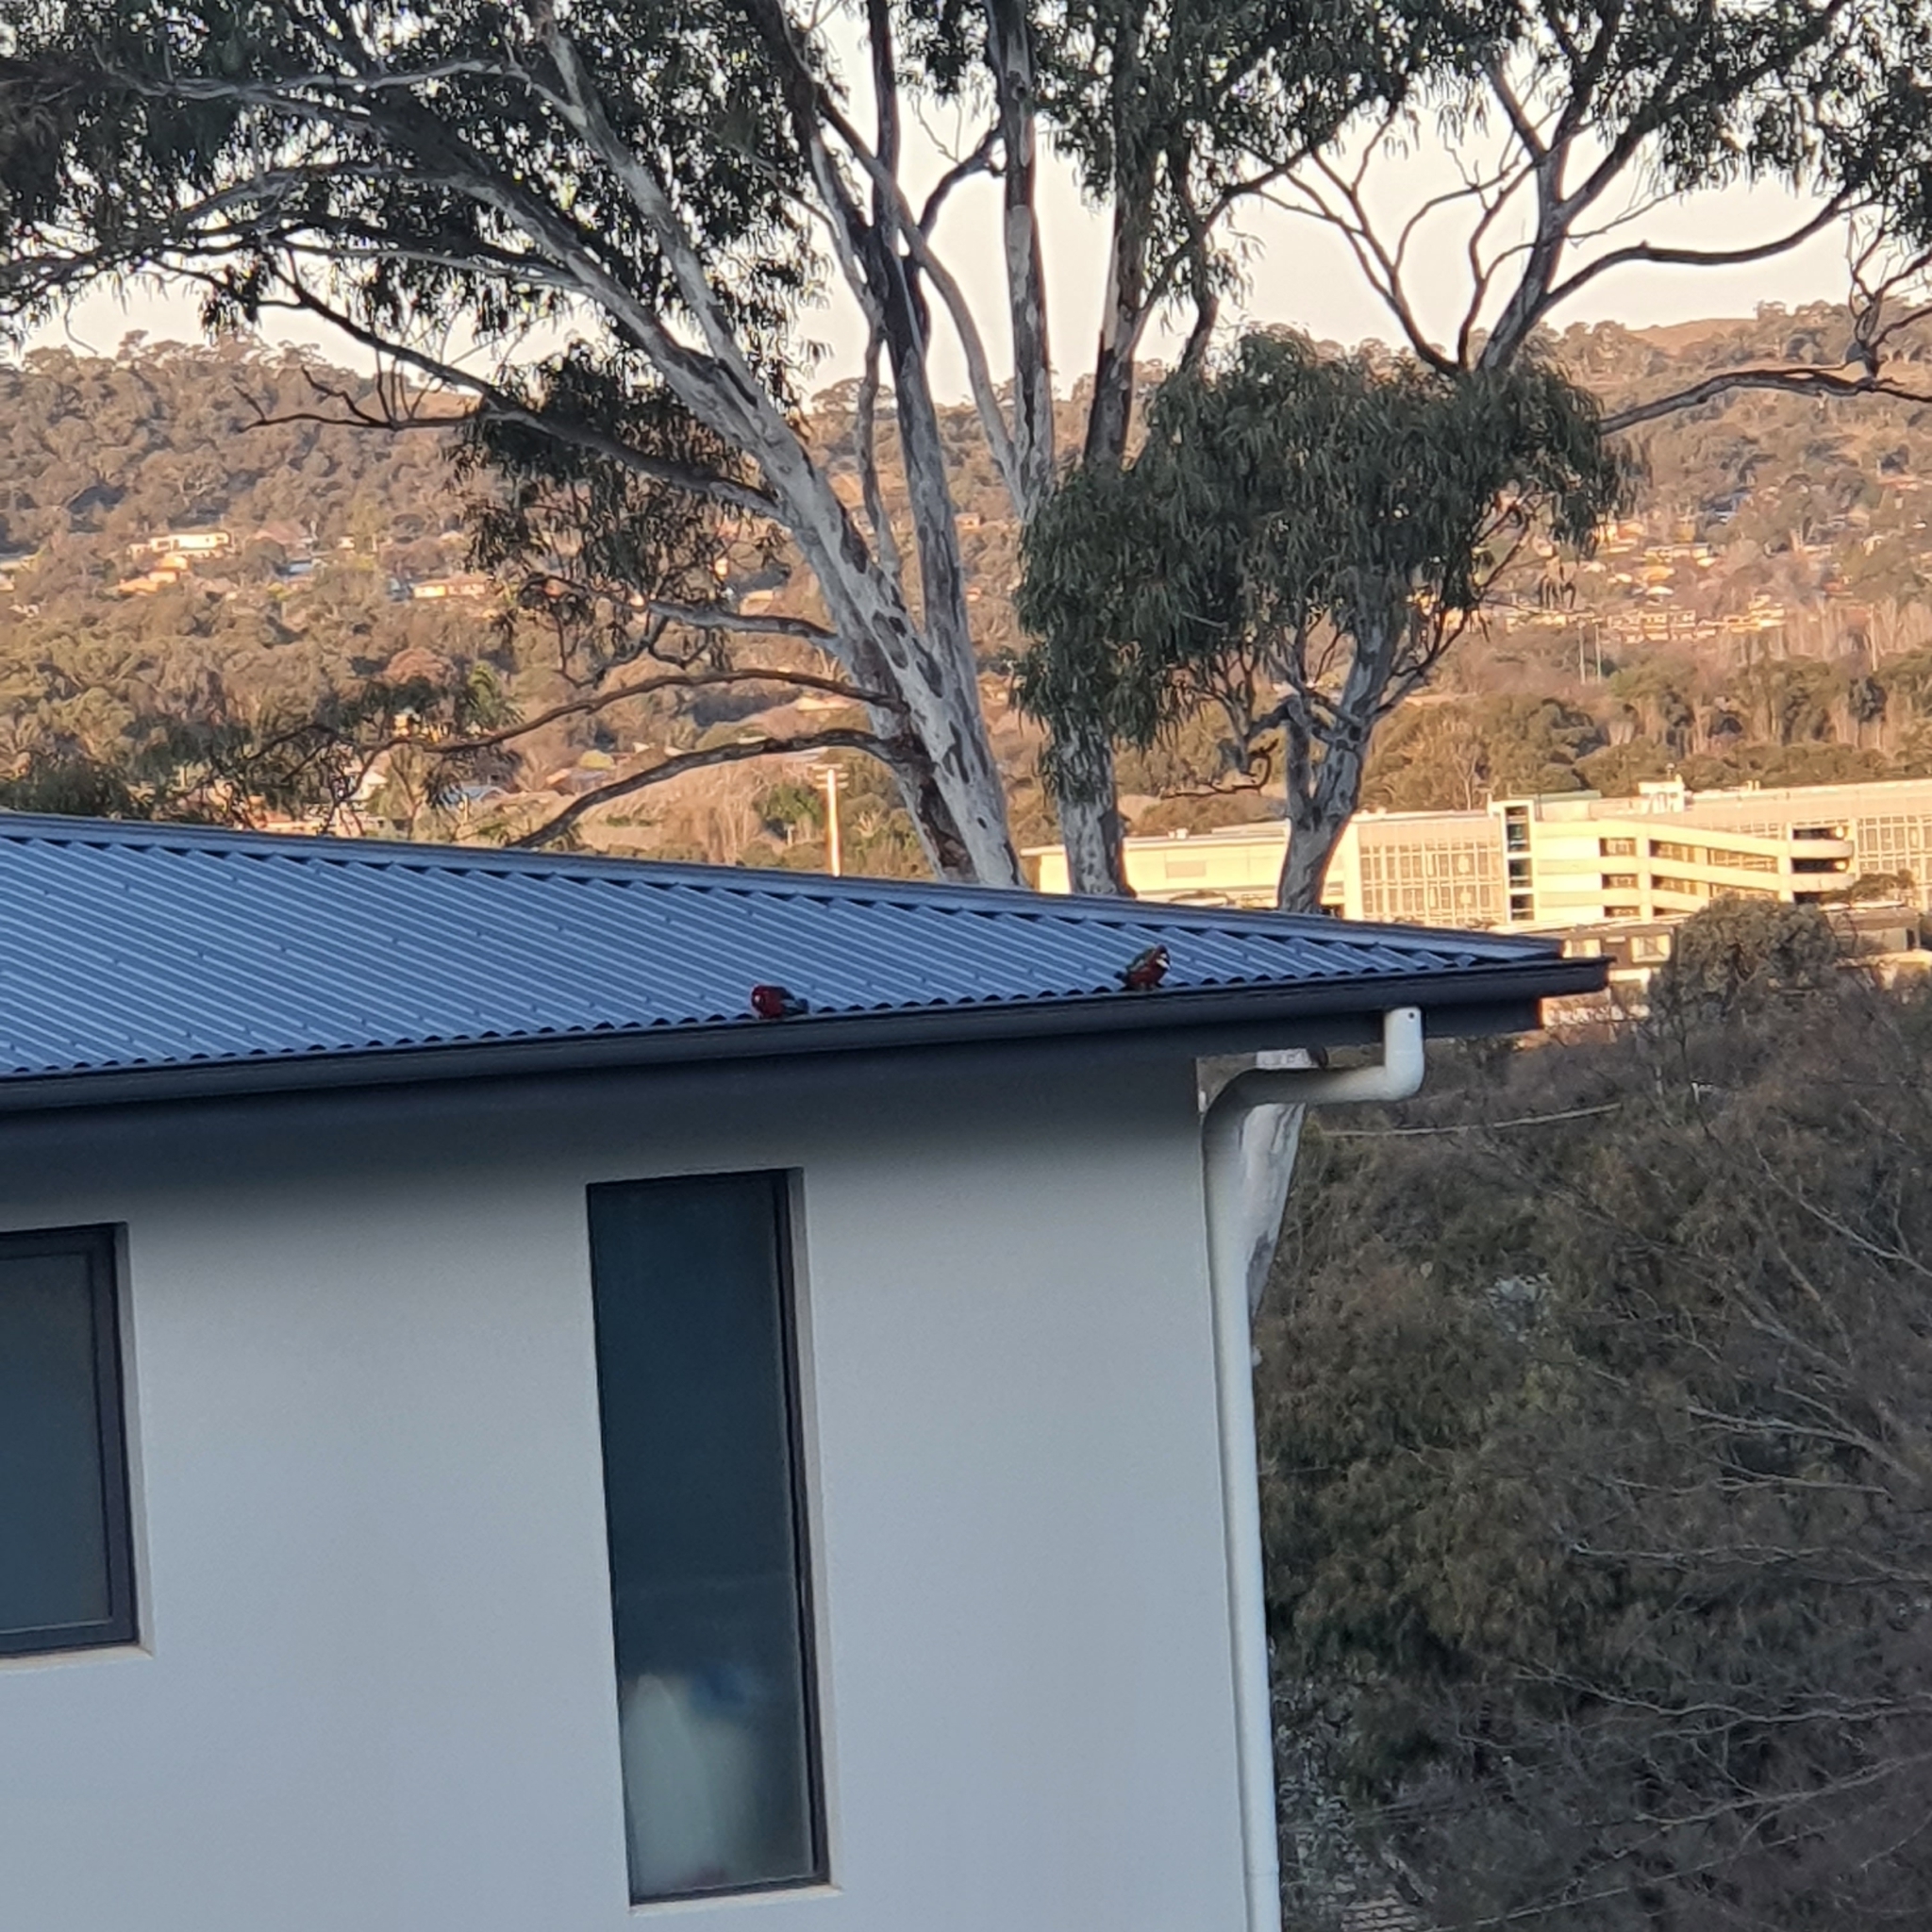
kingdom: Animalia
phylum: Chordata
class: Aves
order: Psittaciformes
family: Psittacidae
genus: Platycercus
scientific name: Platycercus elegans
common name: Crimson rosella
